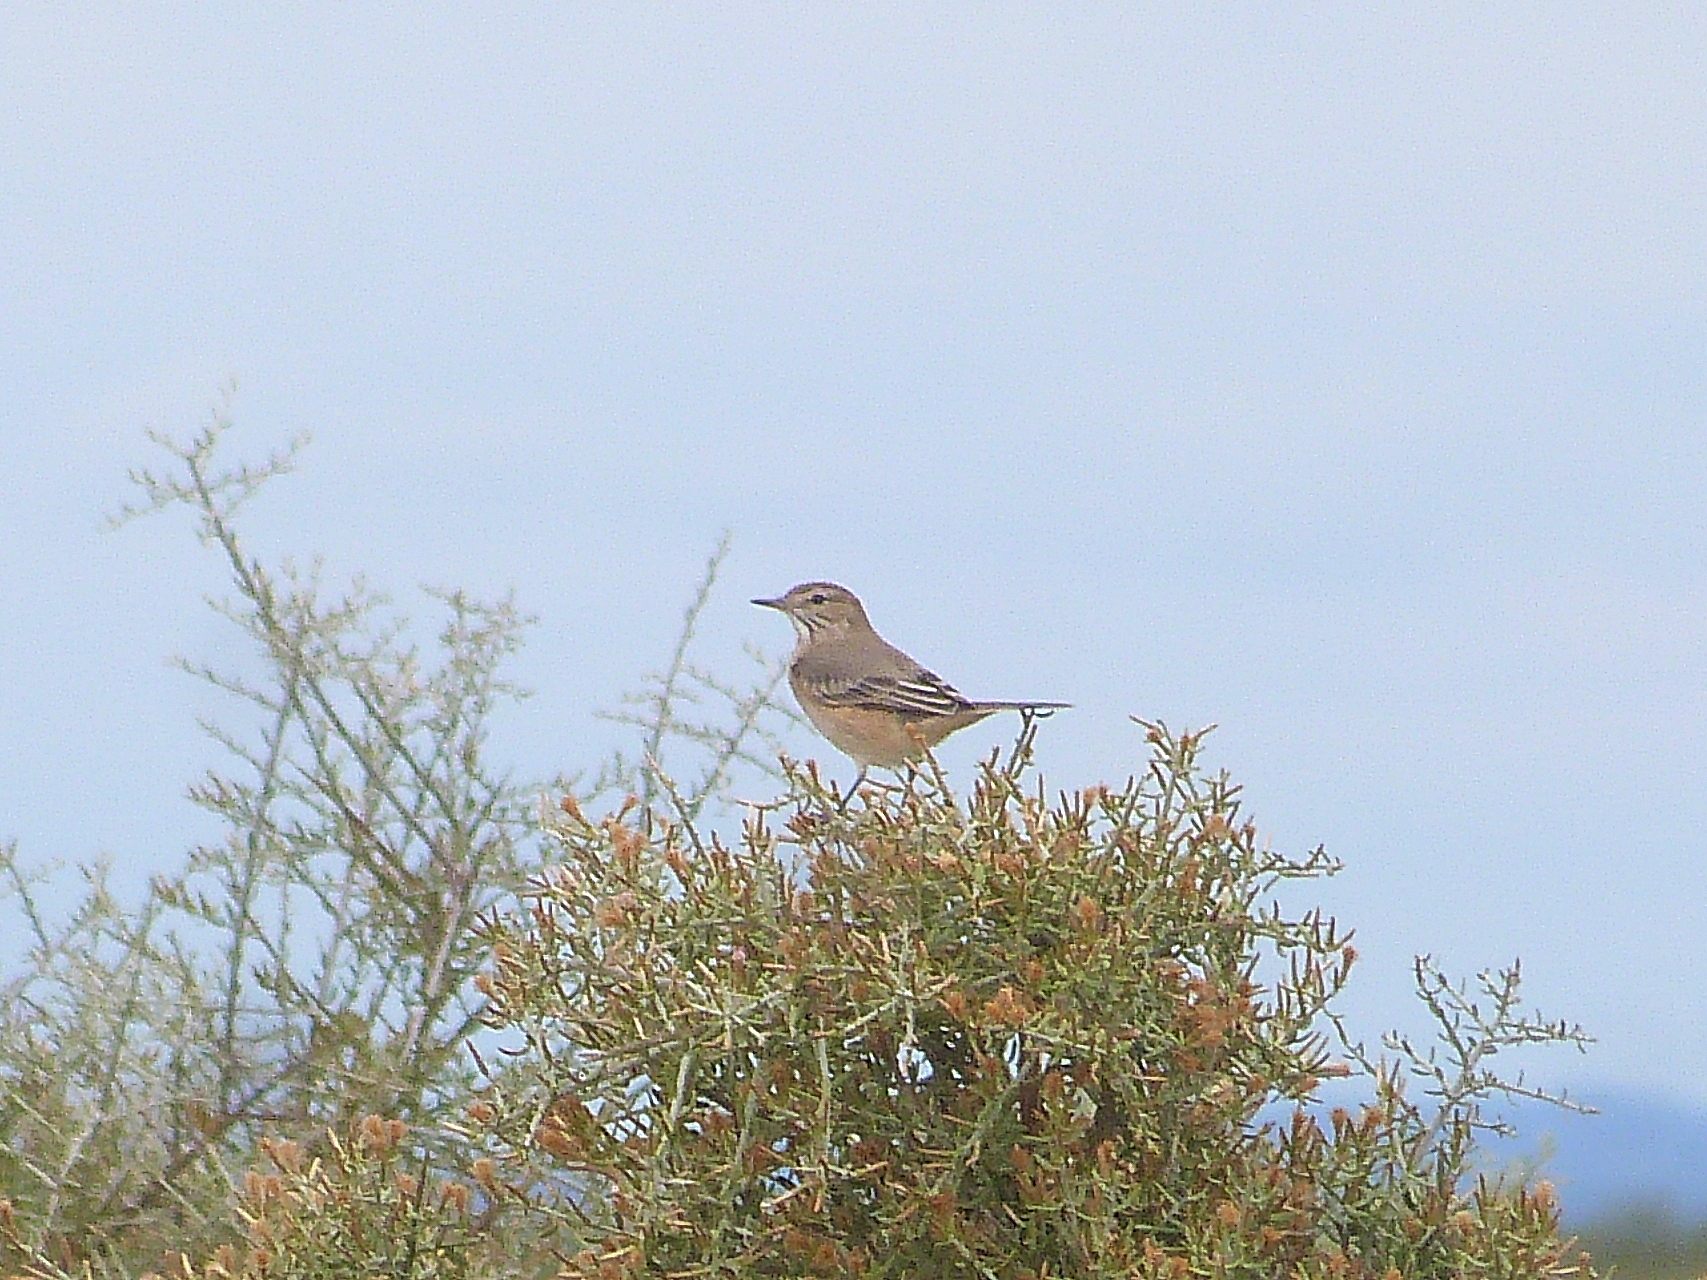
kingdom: Animalia
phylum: Chordata
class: Aves
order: Passeriformes
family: Tyrannidae
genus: Agriornis
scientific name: Agriornis murinus
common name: Lesser shrike-tyrant
